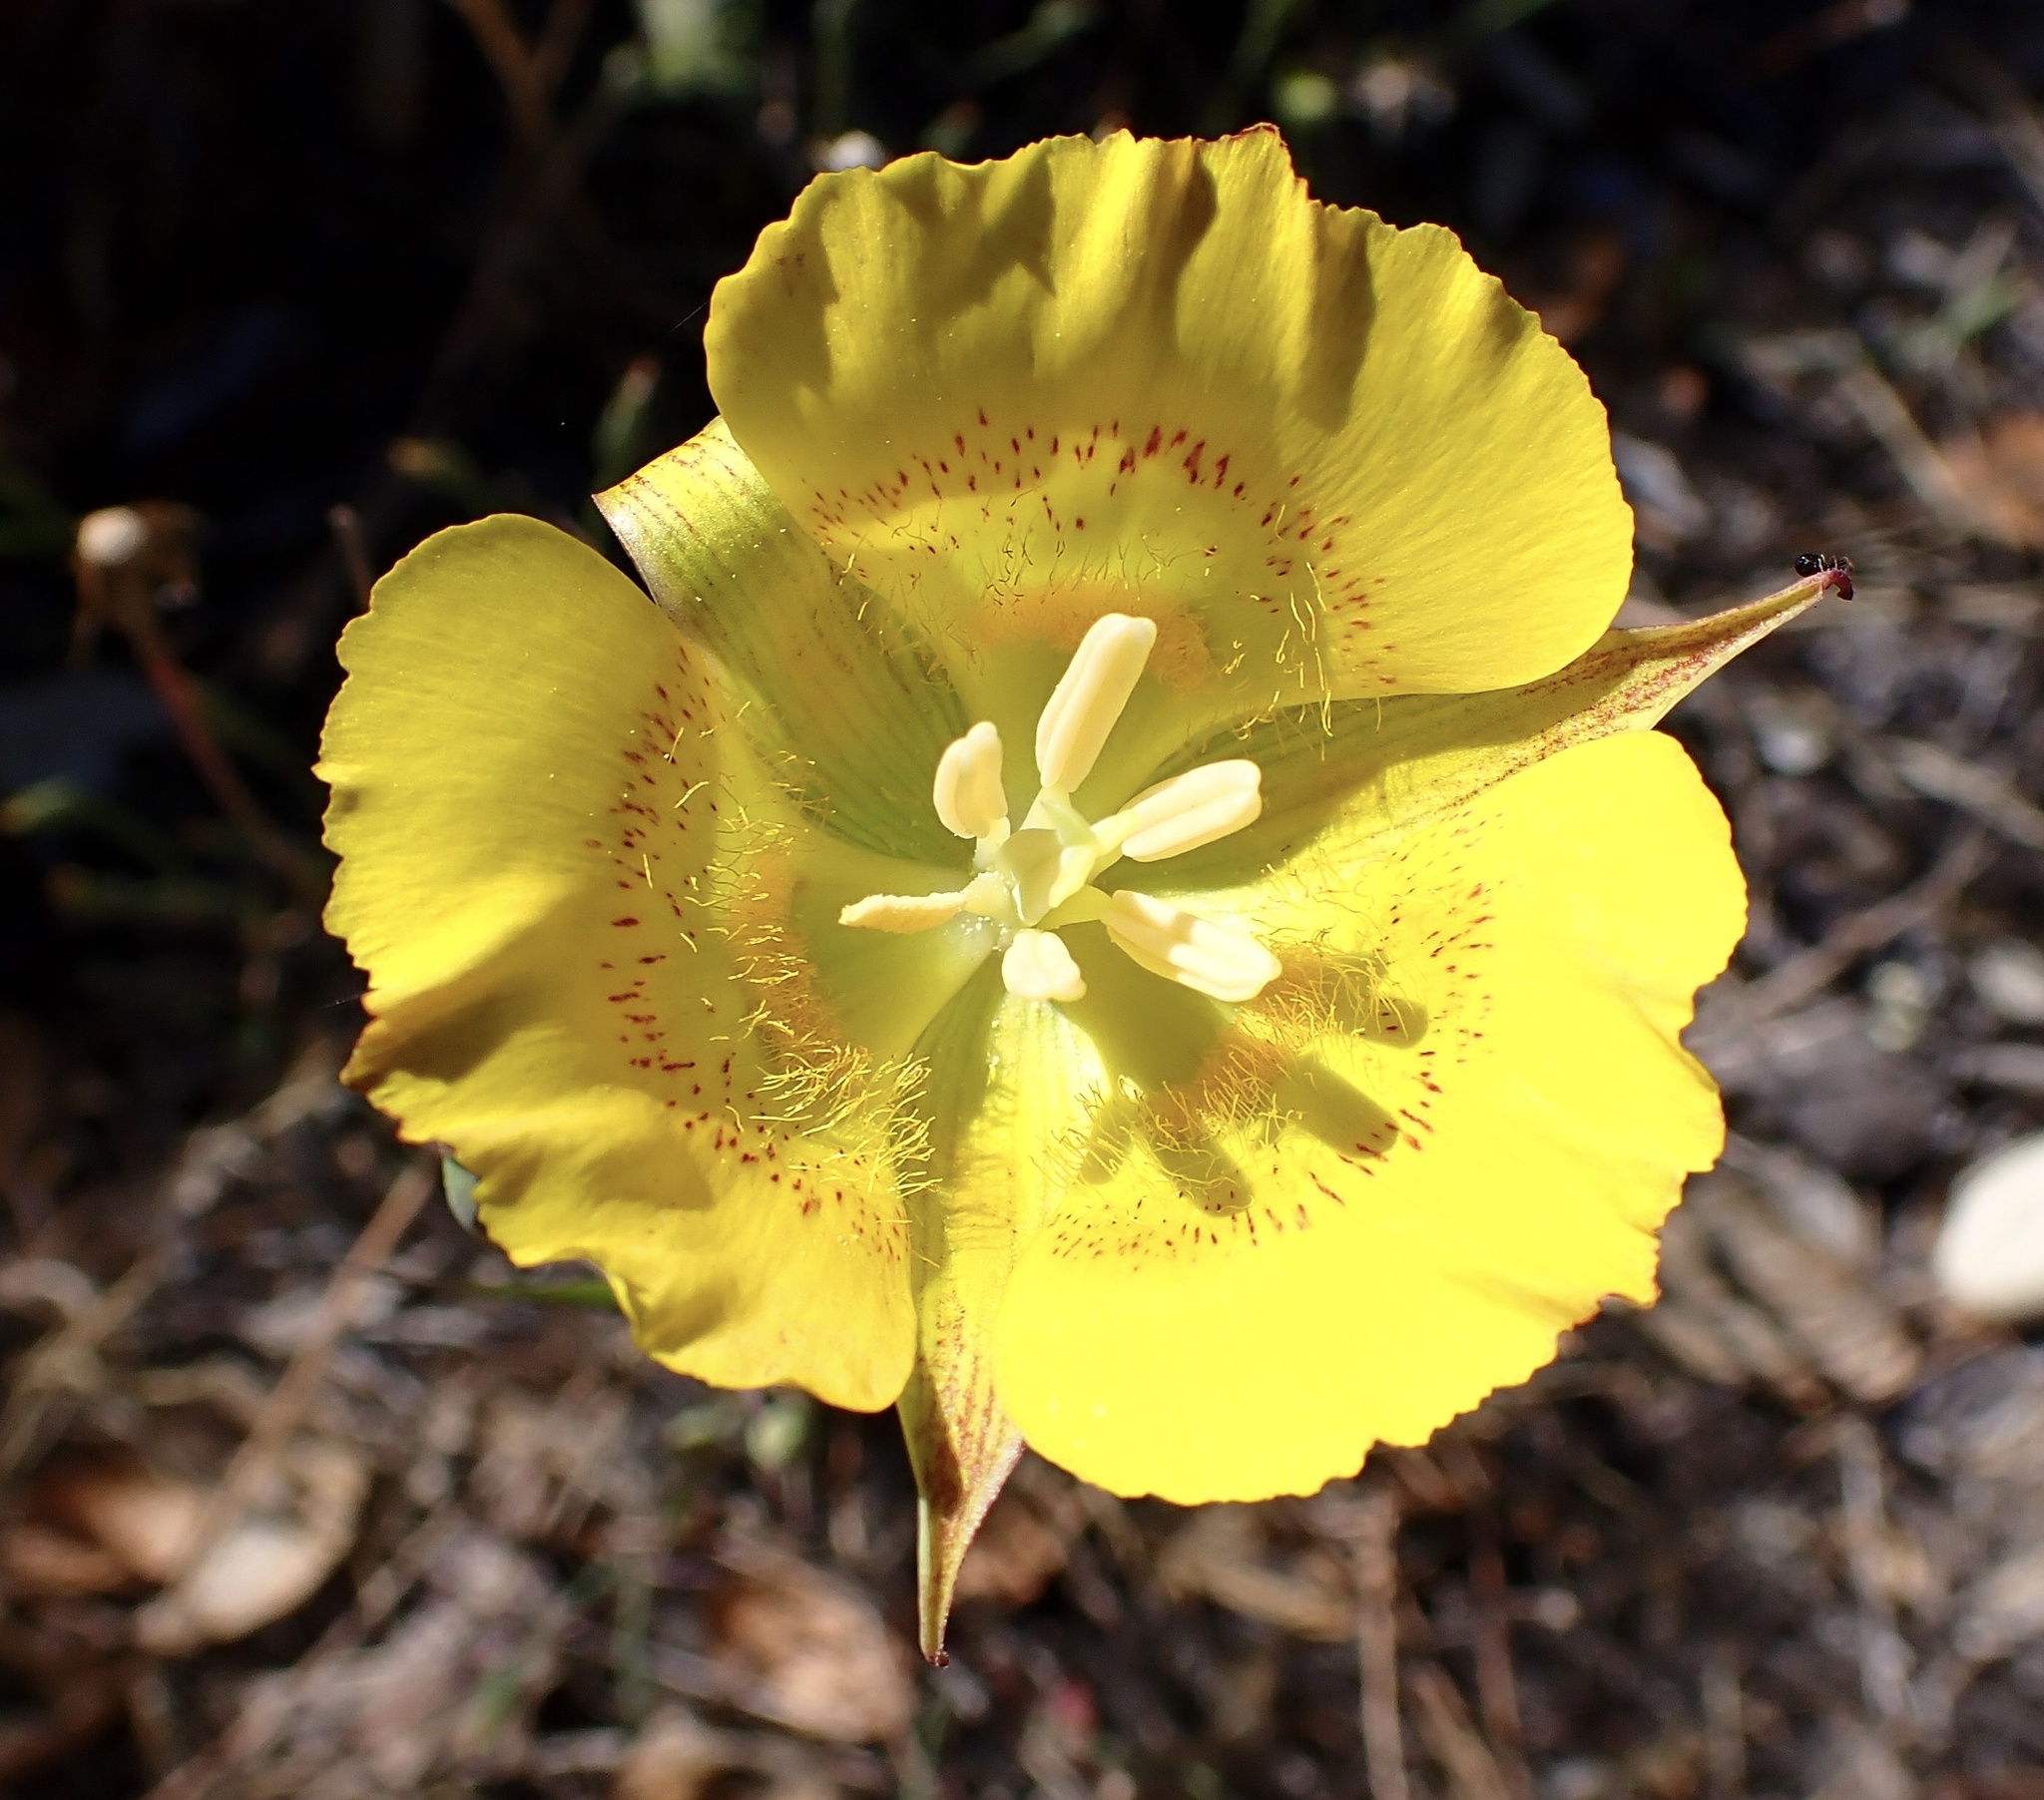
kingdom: Plantae
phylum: Tracheophyta
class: Liliopsida
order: Liliales
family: Liliaceae
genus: Calochortus
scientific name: Calochortus luteus
